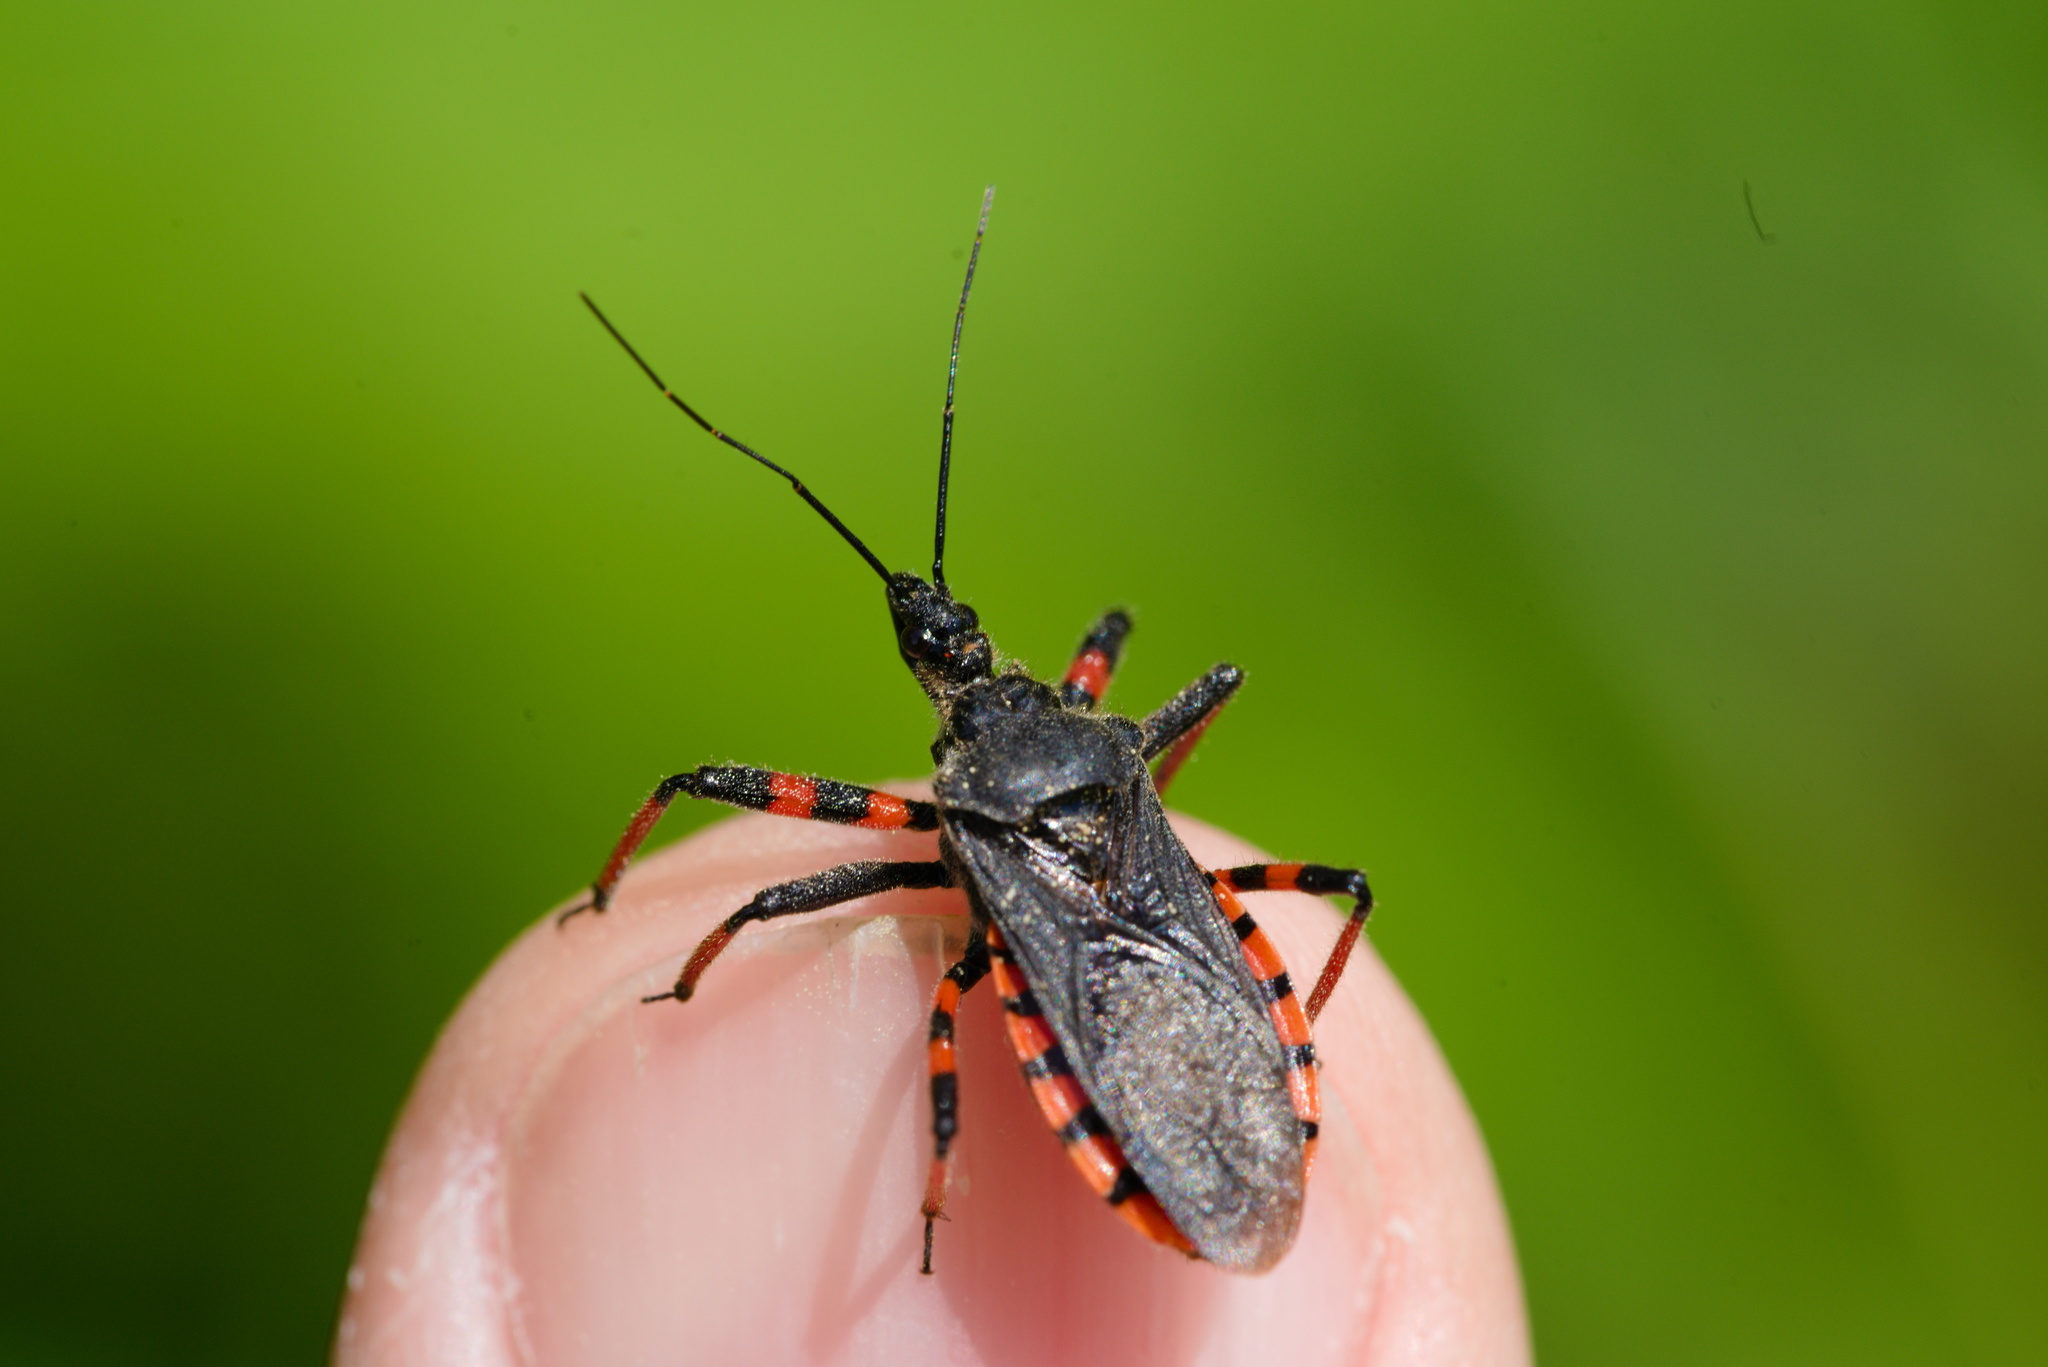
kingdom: Animalia
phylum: Arthropoda
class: Insecta
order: Hemiptera
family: Reduviidae
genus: Rhynocoris
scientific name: Rhynocoris annulatus
